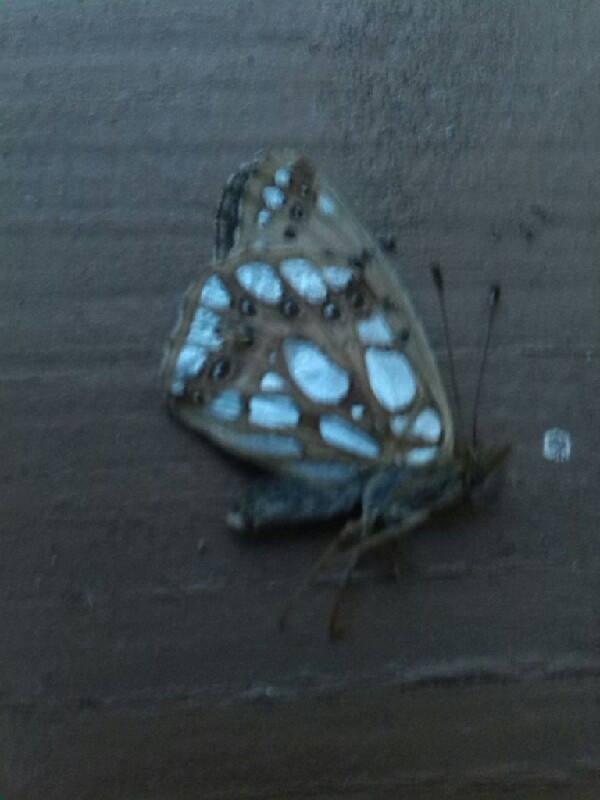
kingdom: Animalia
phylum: Arthropoda
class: Insecta
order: Lepidoptera
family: Nymphalidae
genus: Issoria
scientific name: Issoria lathonia
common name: Queen of spain fritillary
